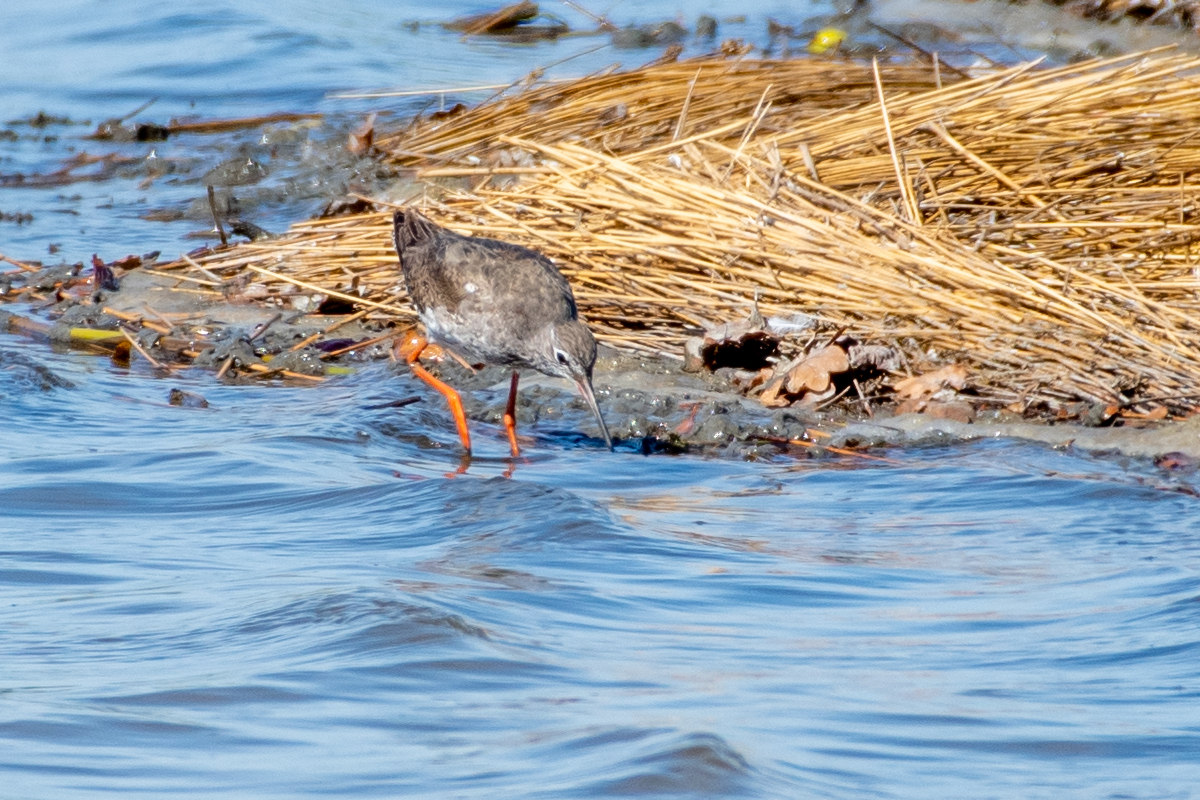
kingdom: Animalia
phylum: Chordata
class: Aves
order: Charadriiformes
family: Scolopacidae
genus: Tringa
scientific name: Tringa totanus
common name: Common redshank
